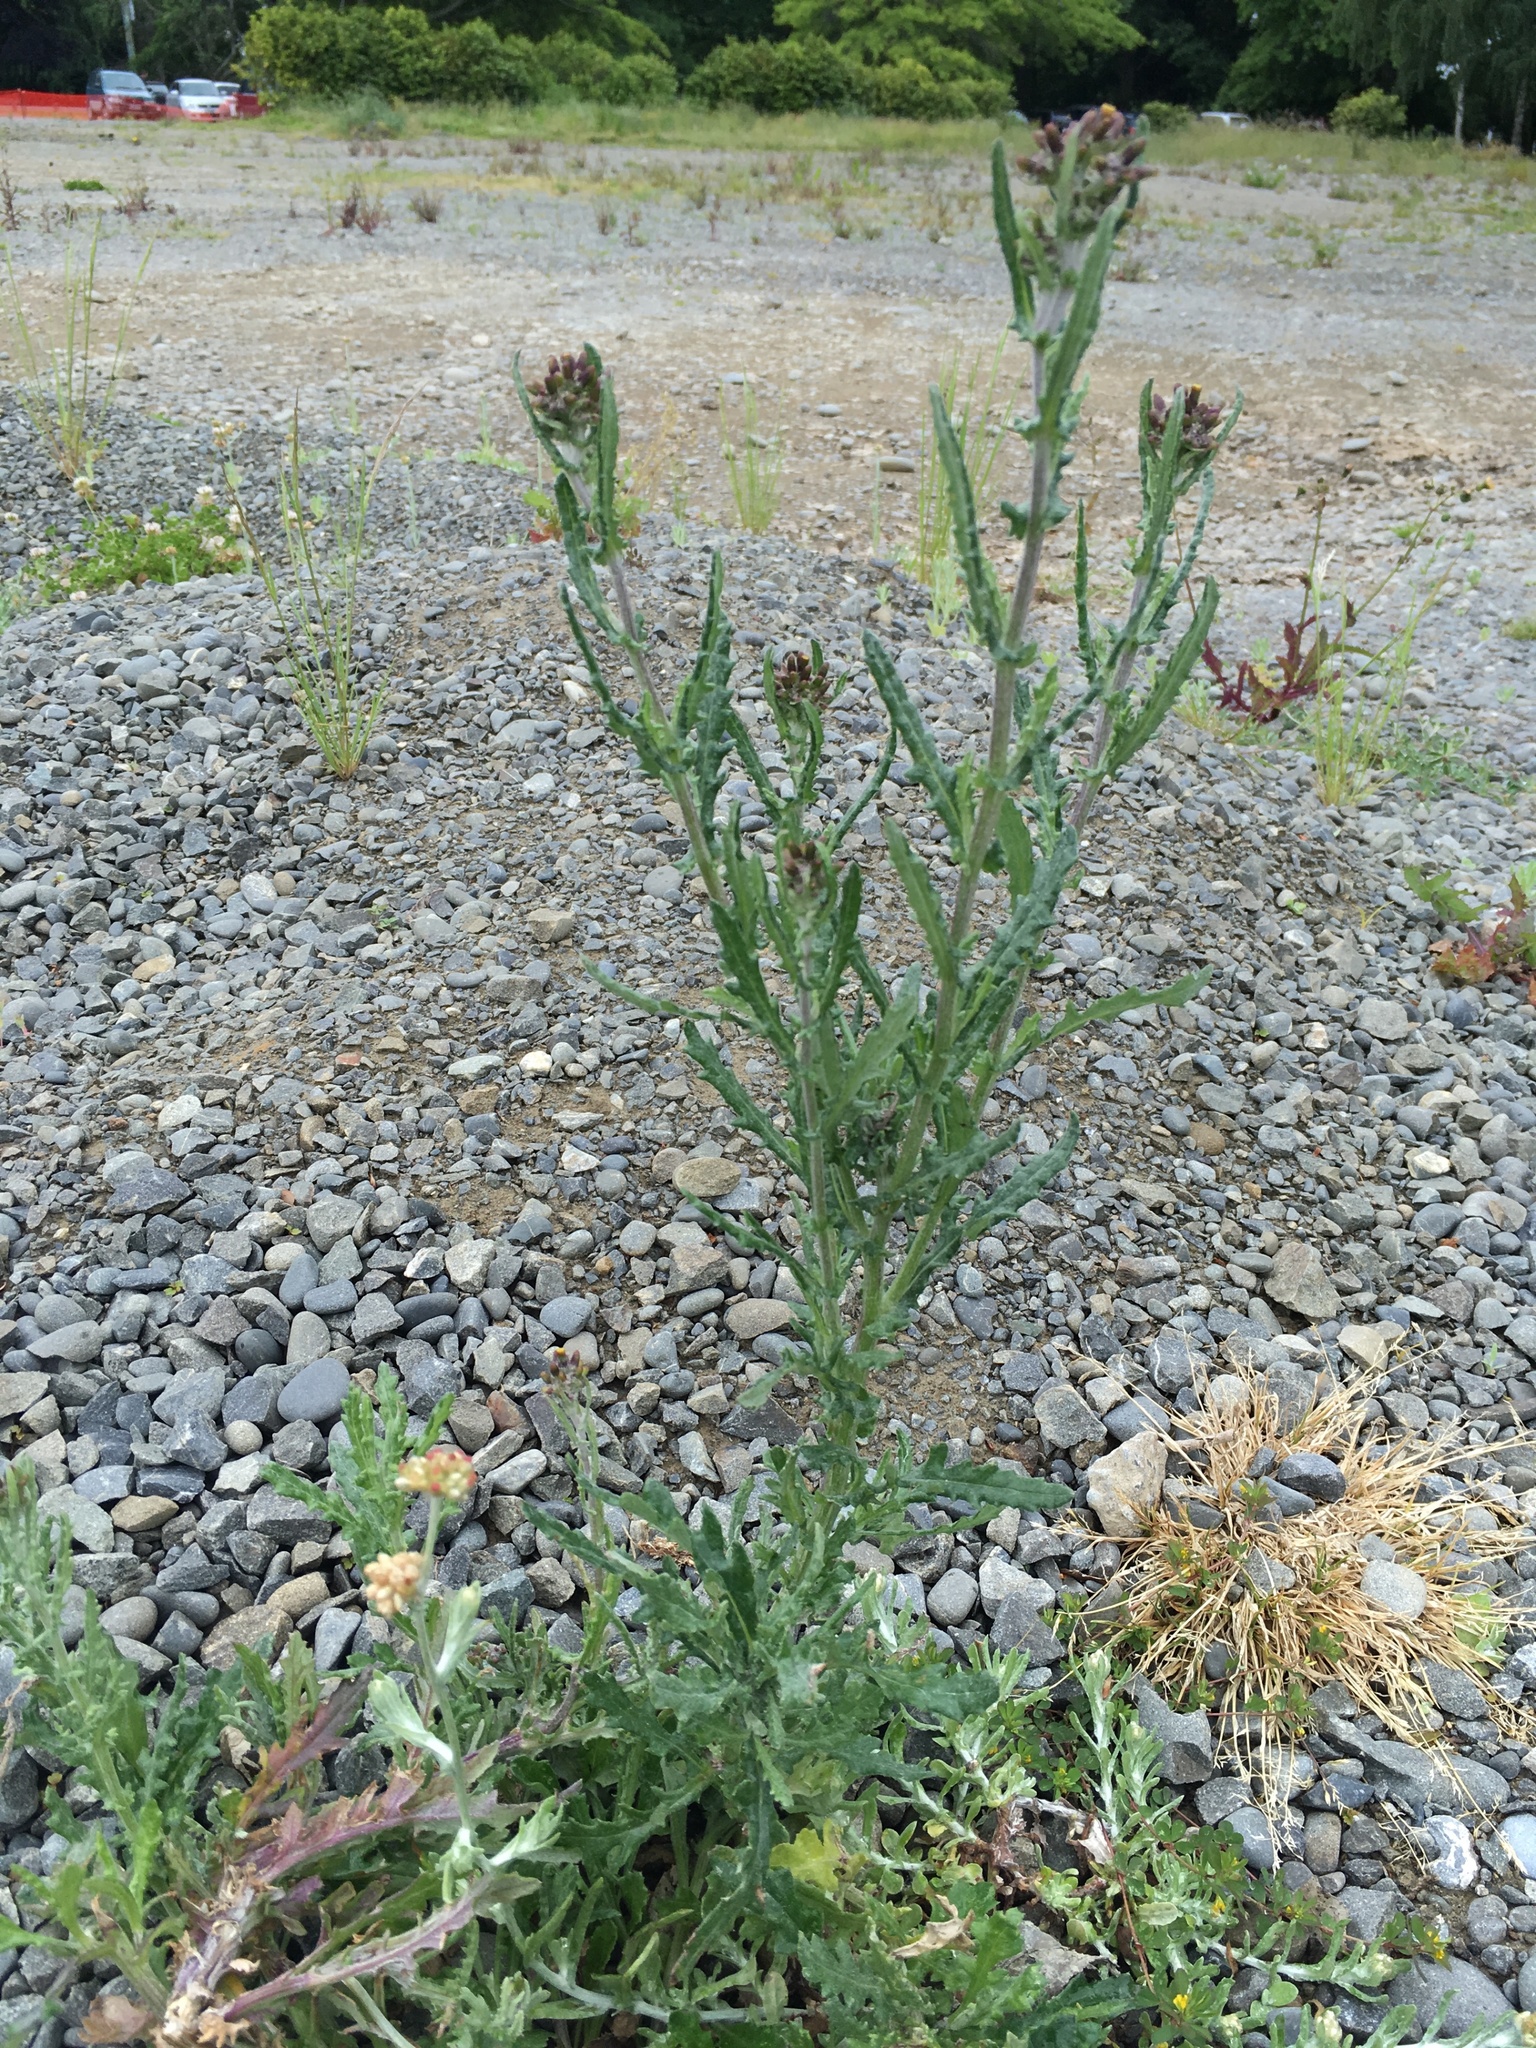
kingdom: Plantae
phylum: Tracheophyta
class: Magnoliopsida
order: Asterales
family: Asteraceae
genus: Senecio
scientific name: Senecio glomeratus
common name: Cutleaf burnweed
